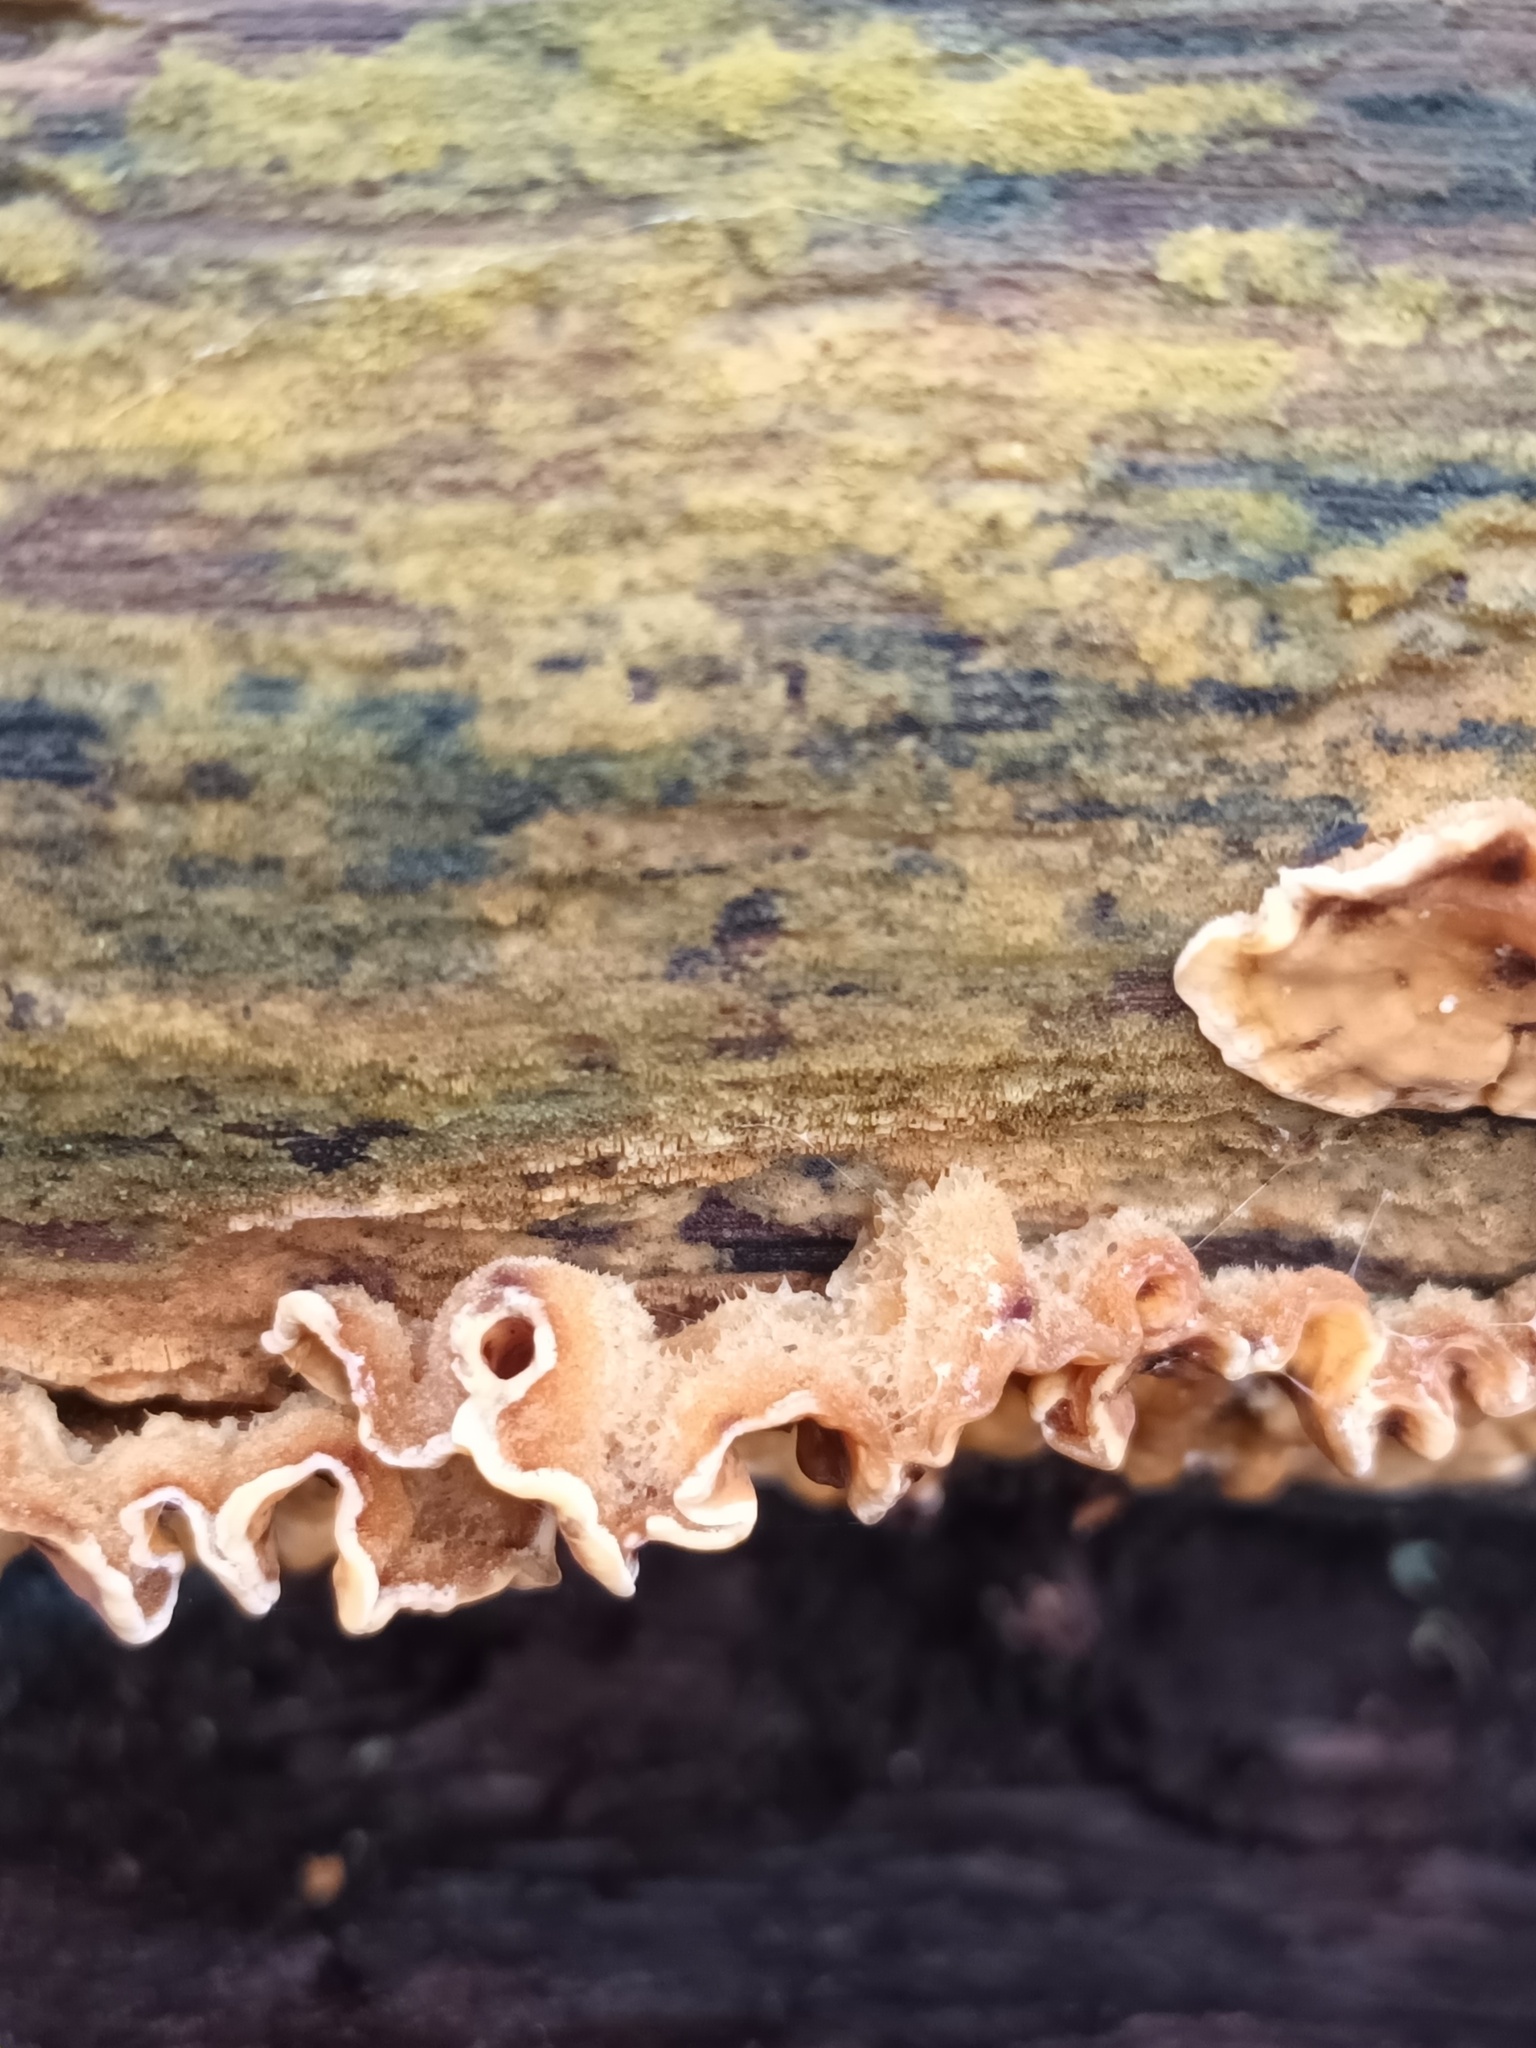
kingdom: Fungi
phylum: Basidiomycota
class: Agaricomycetes
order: Russulales
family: Stereaceae
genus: Stereum
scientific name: Stereum hirsutum
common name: Hairy curtain crust
